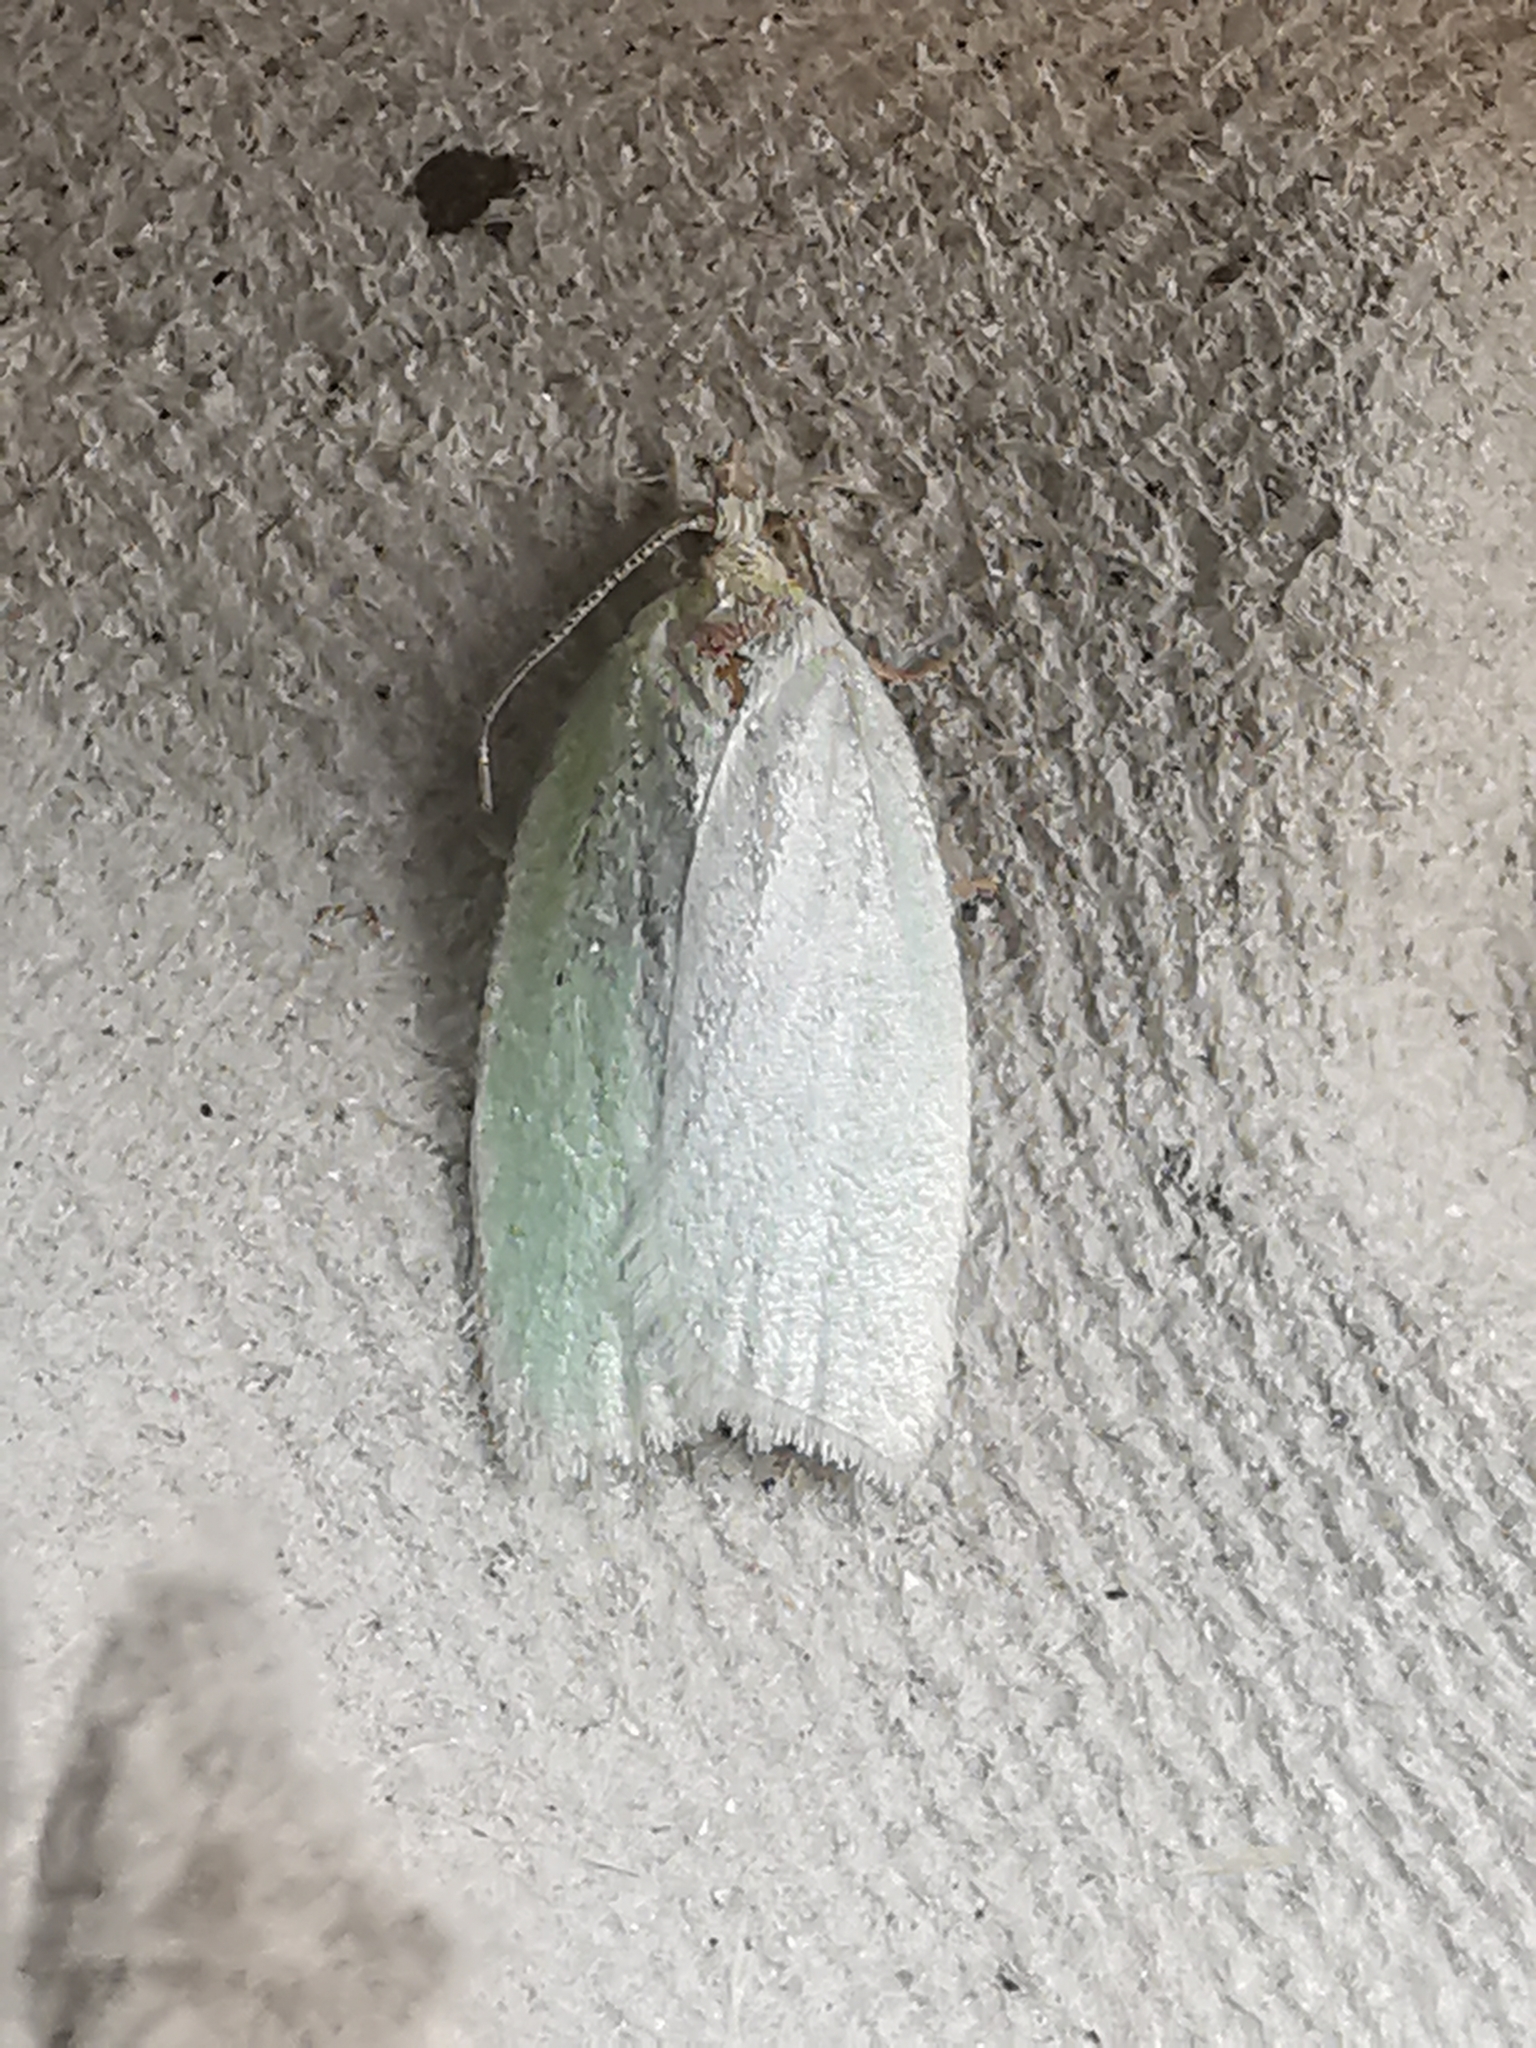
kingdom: Animalia
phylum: Arthropoda
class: Insecta
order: Lepidoptera
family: Tortricidae
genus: Tortrix
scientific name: Tortrix viridana
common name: Green oak tortrix
